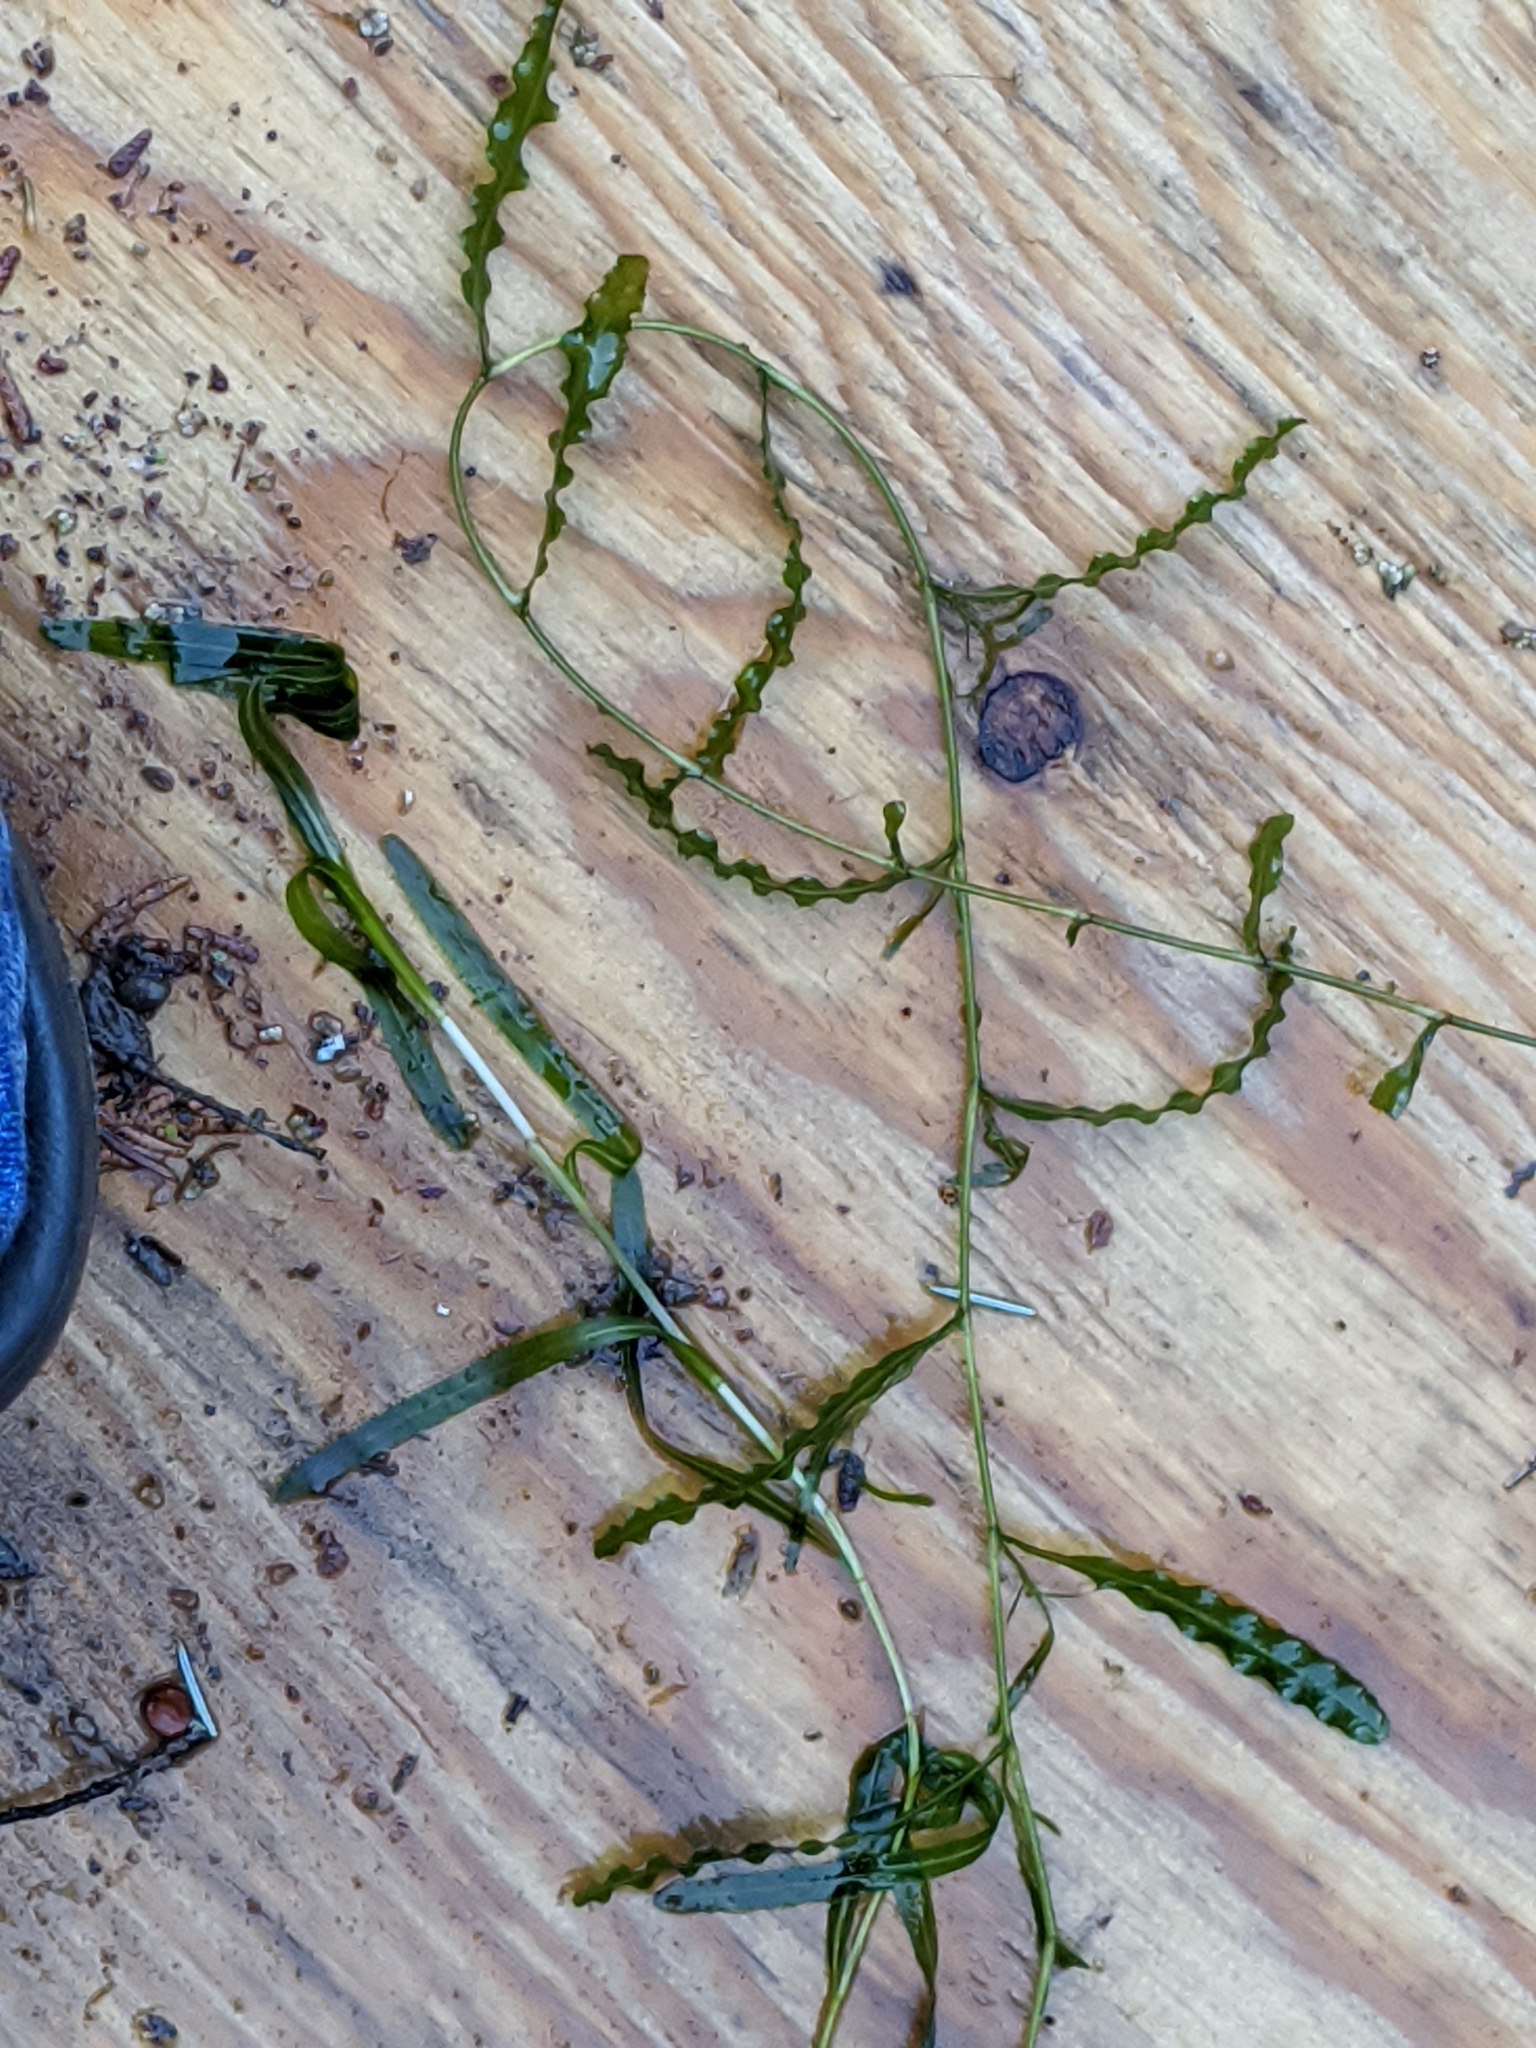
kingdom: Plantae
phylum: Tracheophyta
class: Liliopsida
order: Alismatales
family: Potamogetonaceae
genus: Potamogeton
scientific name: Potamogeton crispus
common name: Curled pondweed
